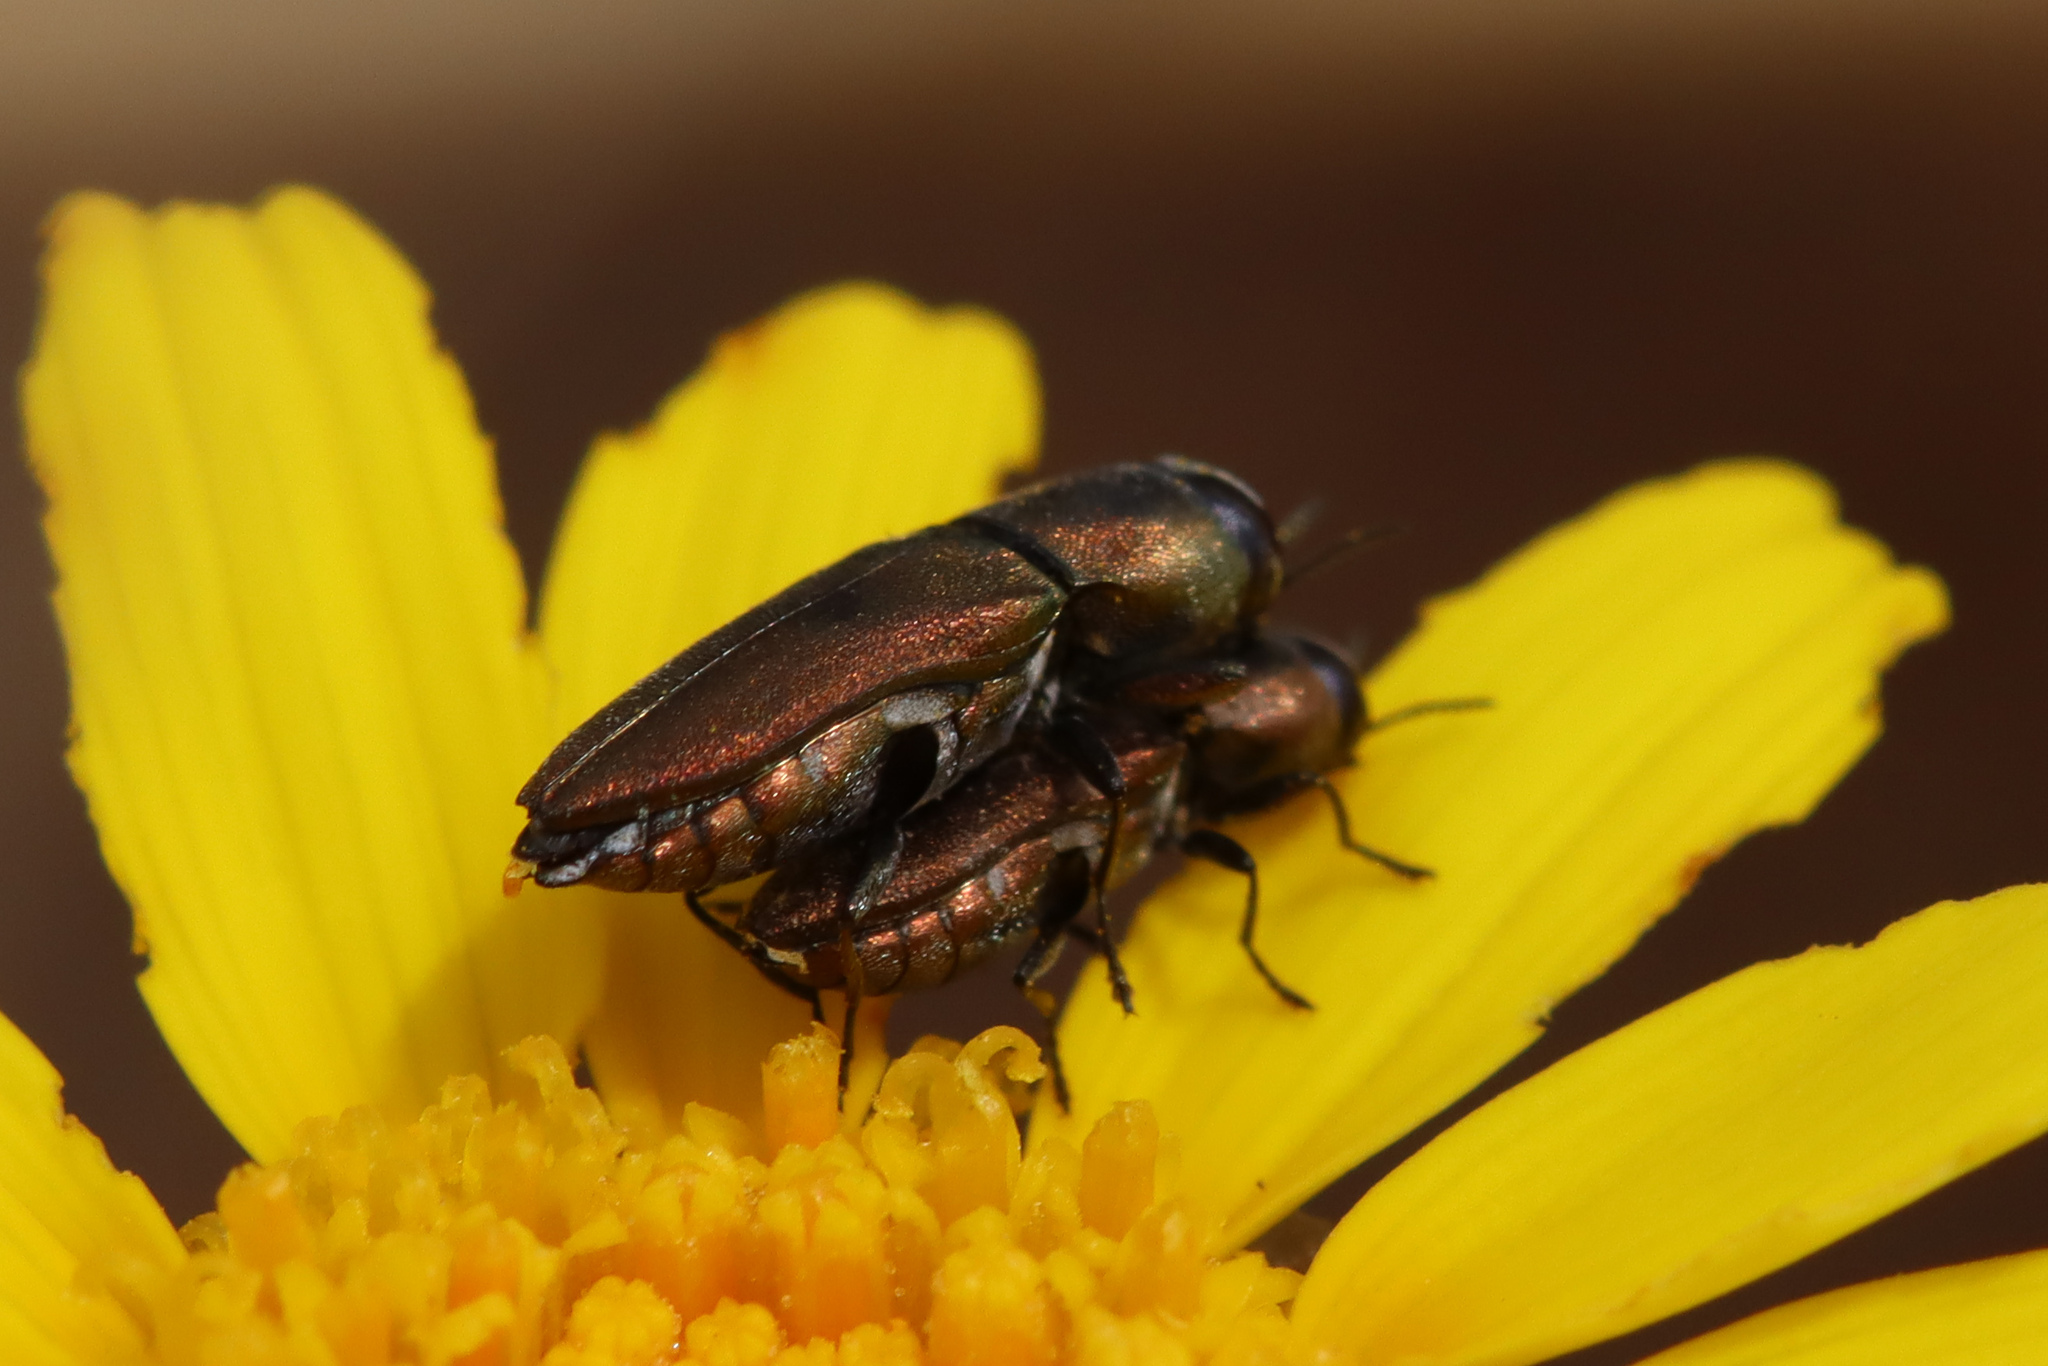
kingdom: Animalia
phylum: Arthropoda
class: Insecta
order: Coleoptera
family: Buprestidae
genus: Anthaxia
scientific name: Anthaxia umbellatarum
